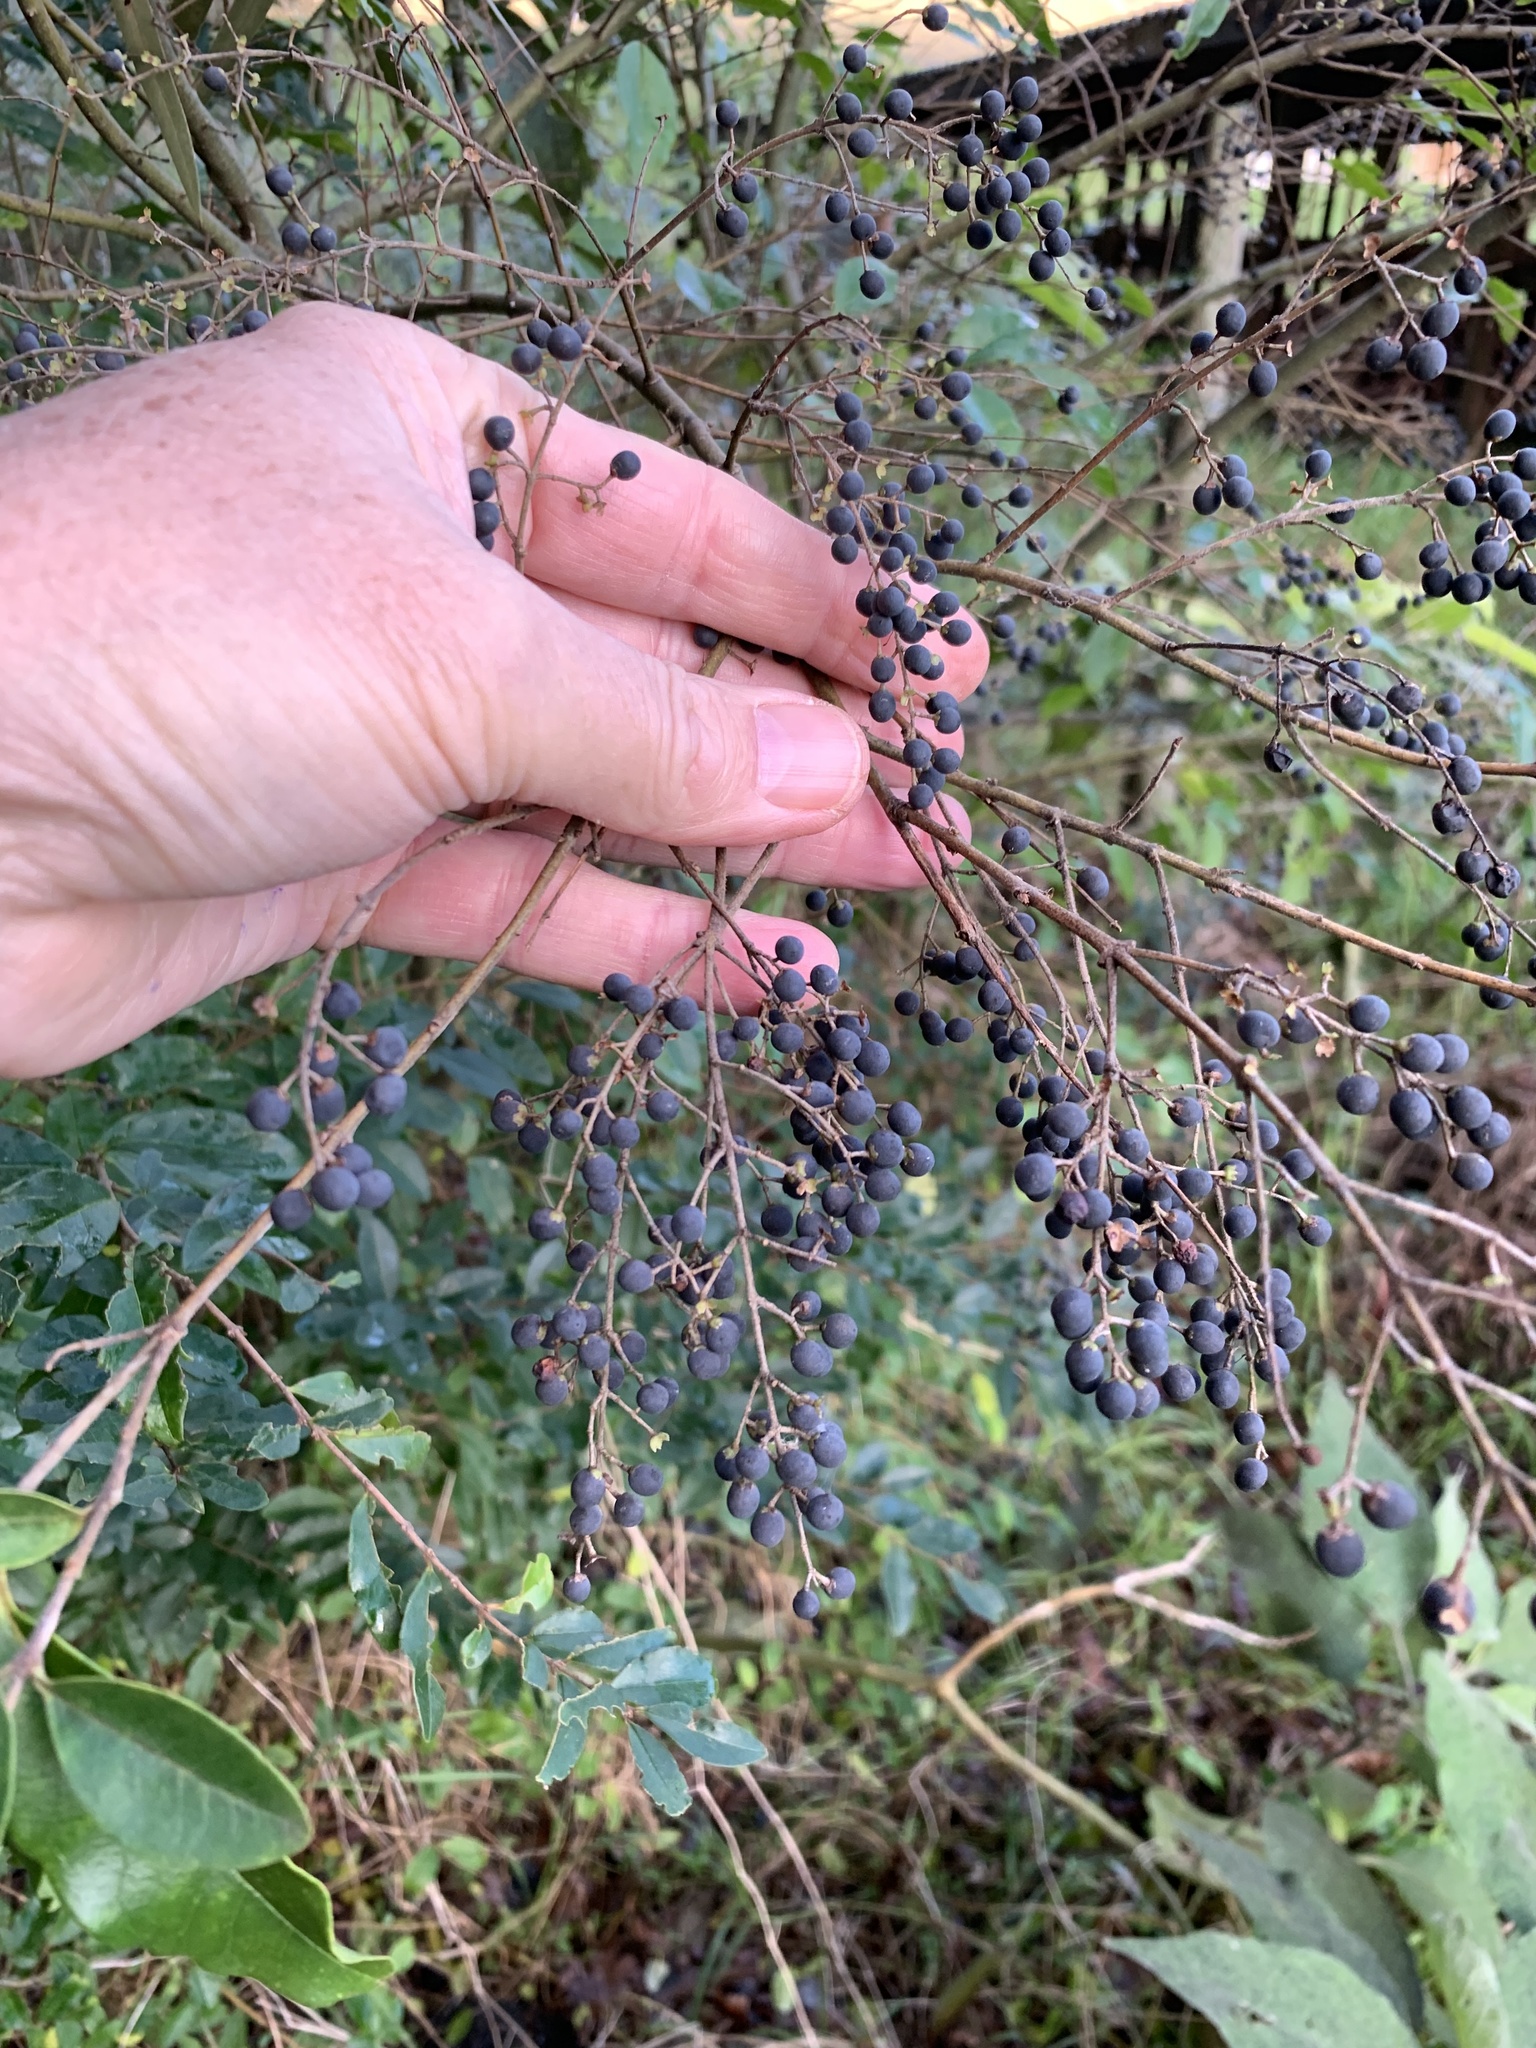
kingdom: Plantae
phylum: Tracheophyta
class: Magnoliopsida
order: Lamiales
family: Oleaceae
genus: Ligustrum
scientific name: Ligustrum sinense
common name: Chinese privet
